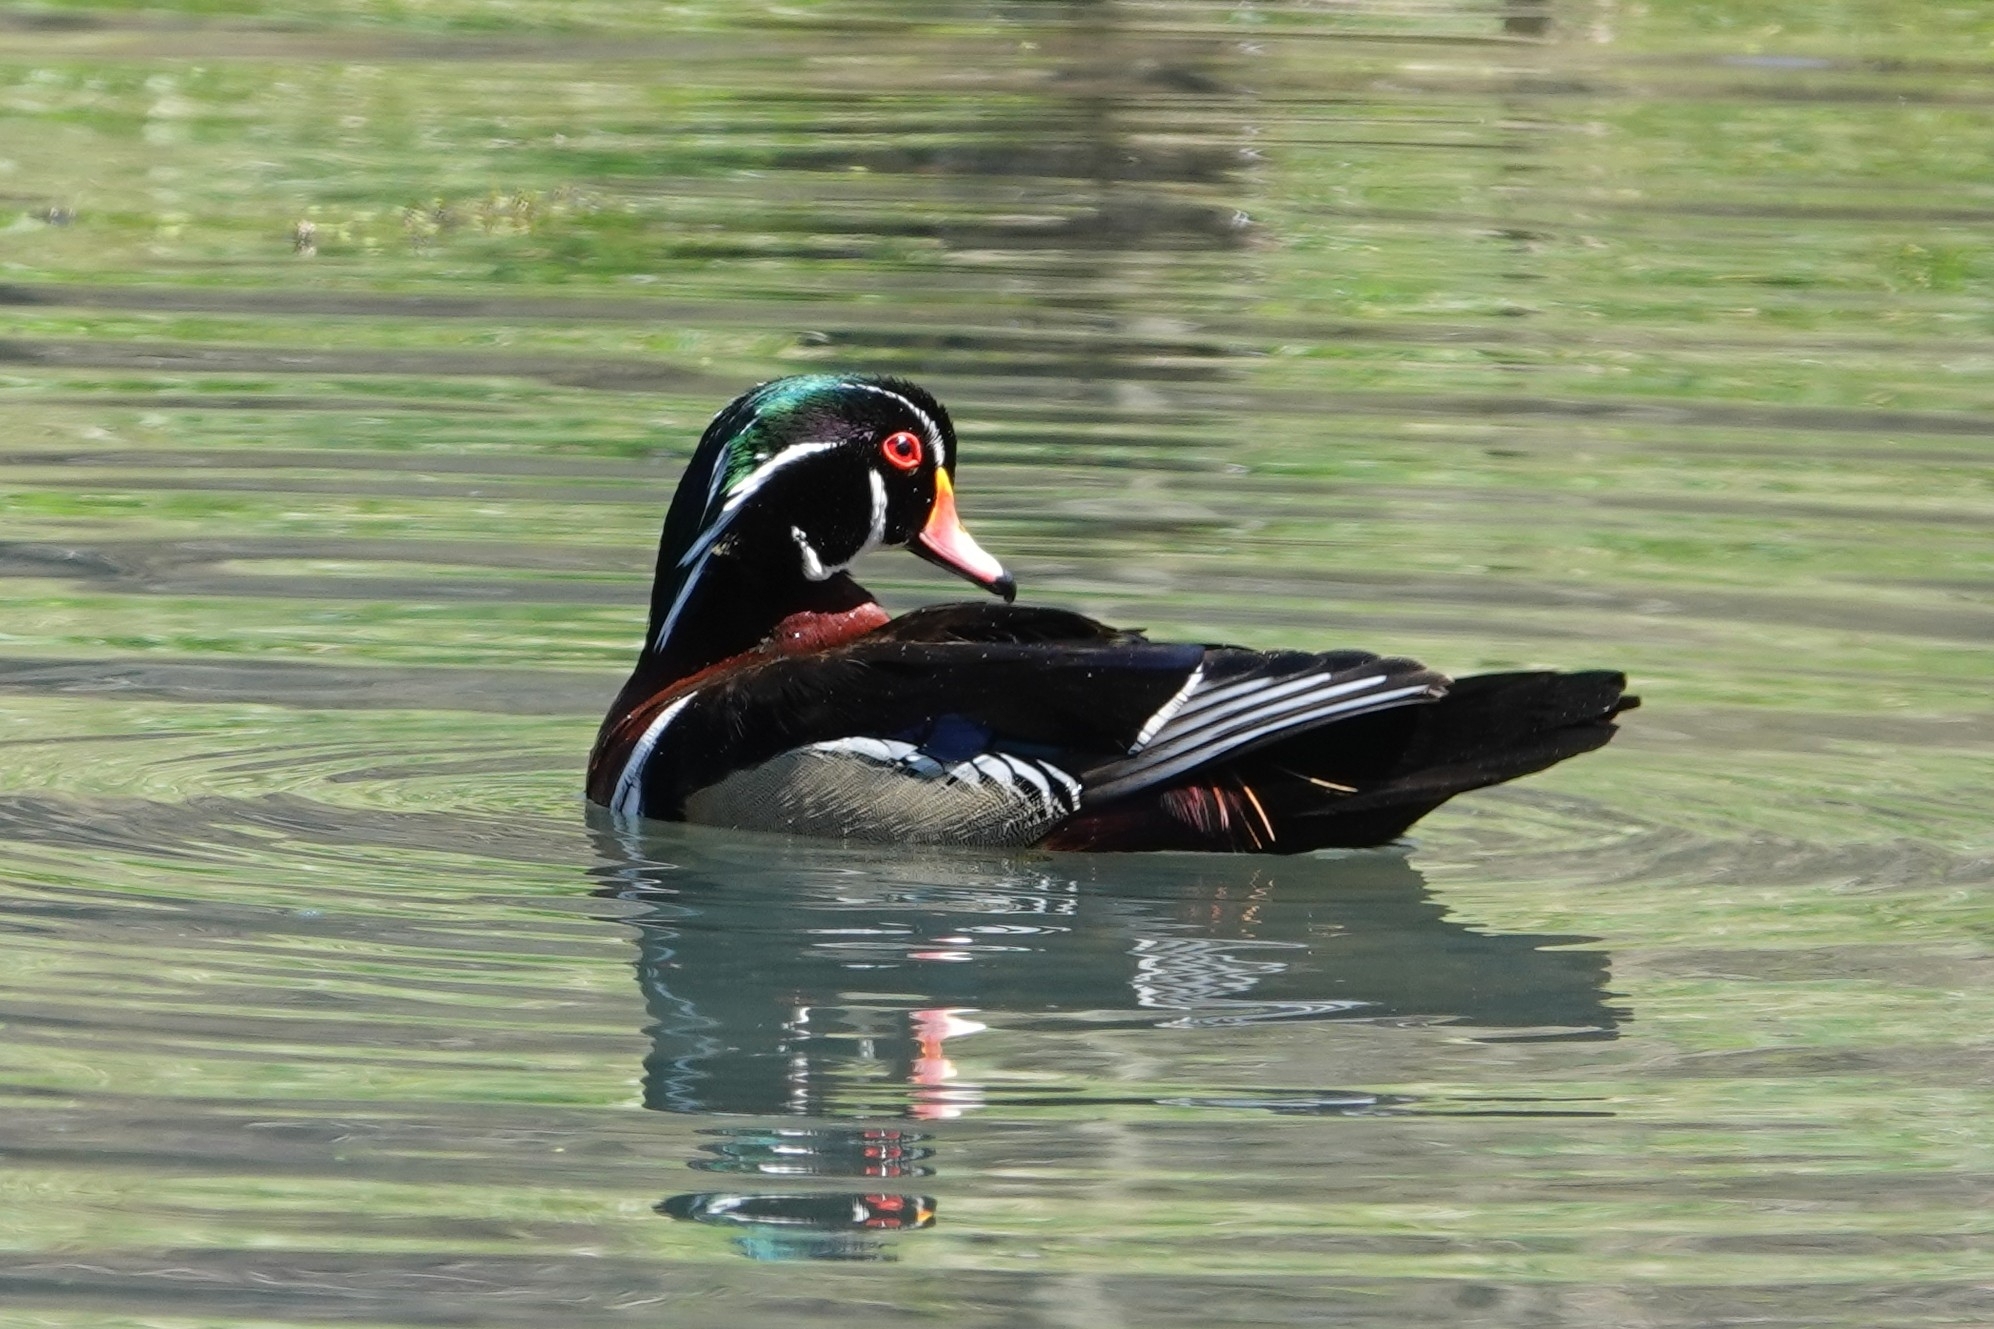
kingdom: Animalia
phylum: Chordata
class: Aves
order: Anseriformes
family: Anatidae
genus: Aix
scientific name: Aix sponsa
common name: Wood duck
